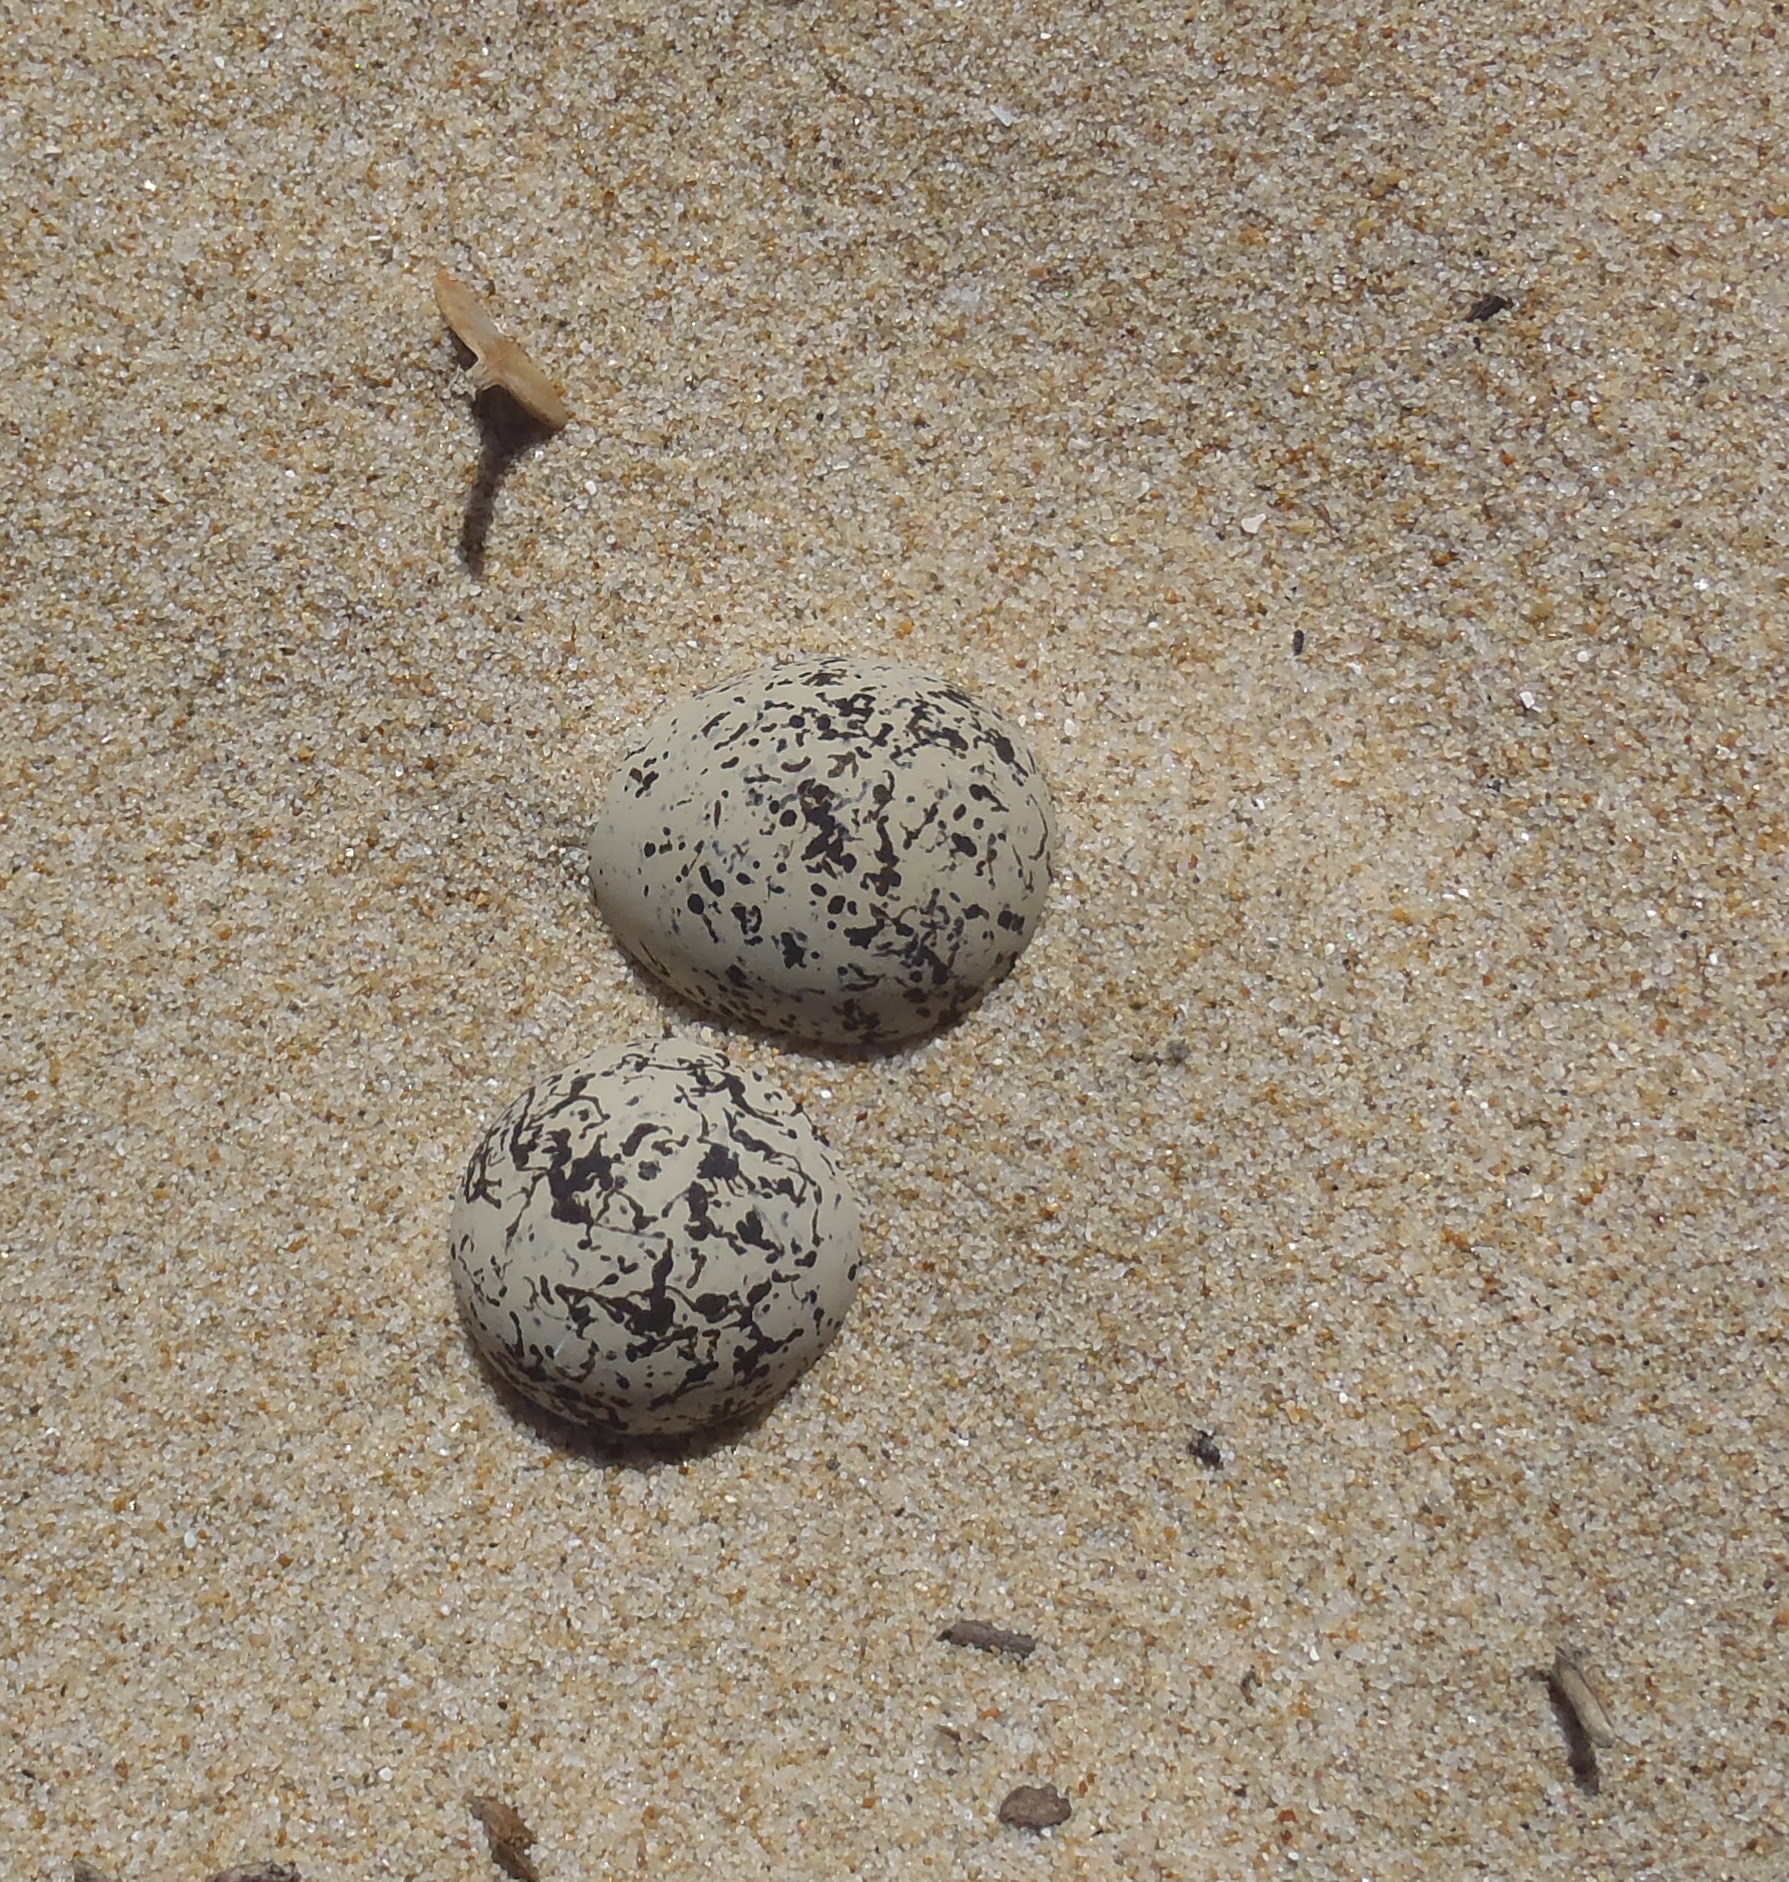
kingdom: Animalia
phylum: Chordata
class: Aves
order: Charadriiformes
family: Charadriidae
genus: Anarhynchus
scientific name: Anarhynchus
